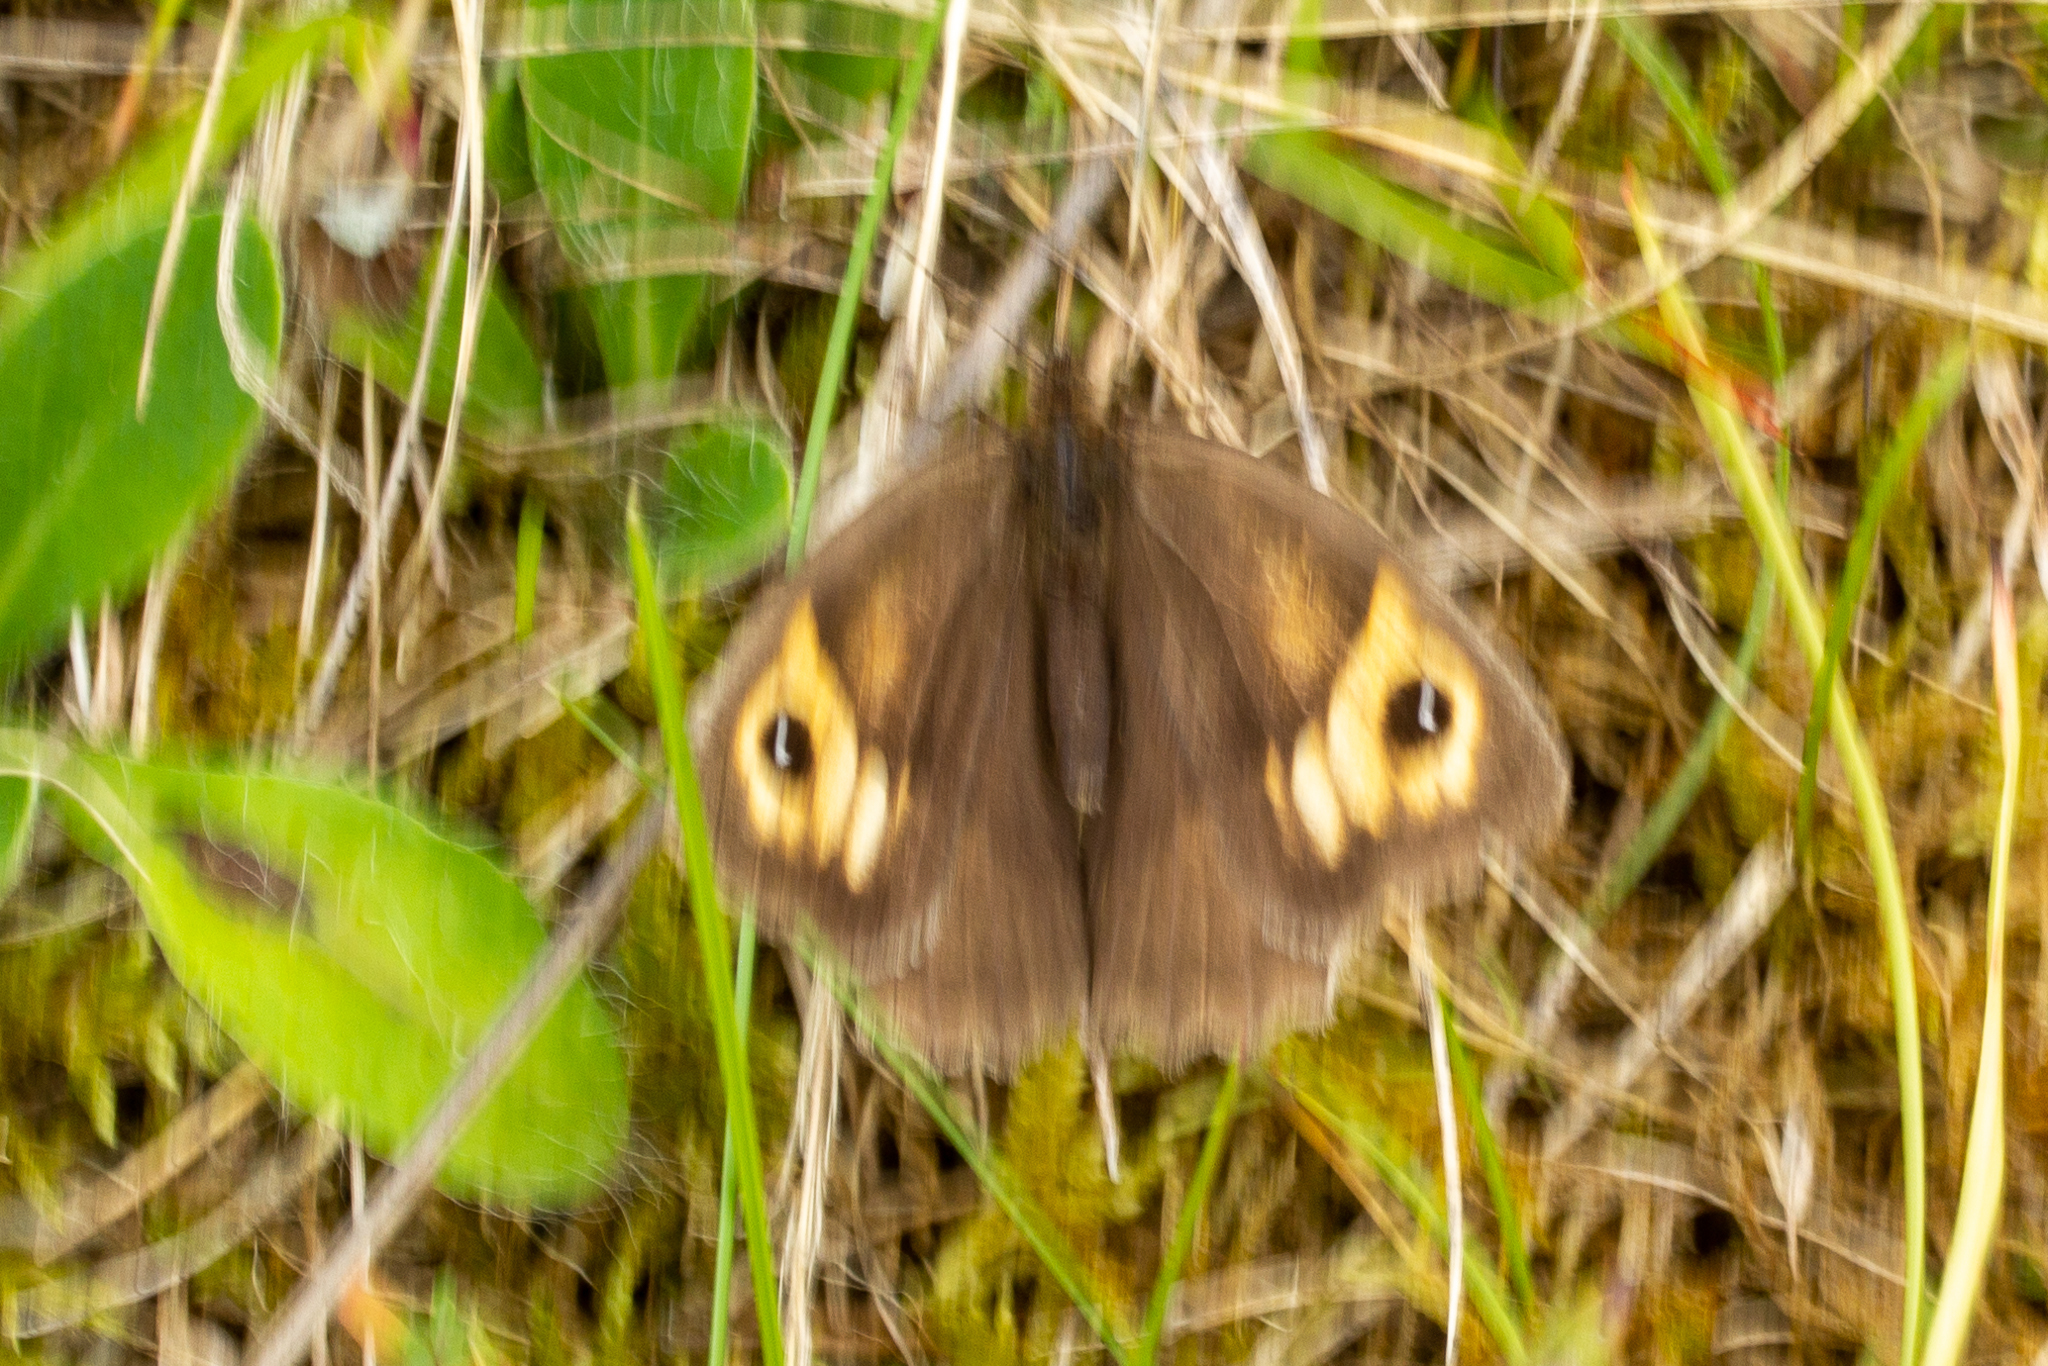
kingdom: Animalia
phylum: Arthropoda
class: Insecta
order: Lepidoptera
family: Nymphalidae
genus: Maniola
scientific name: Maniola jurtina
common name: Meadow brown
